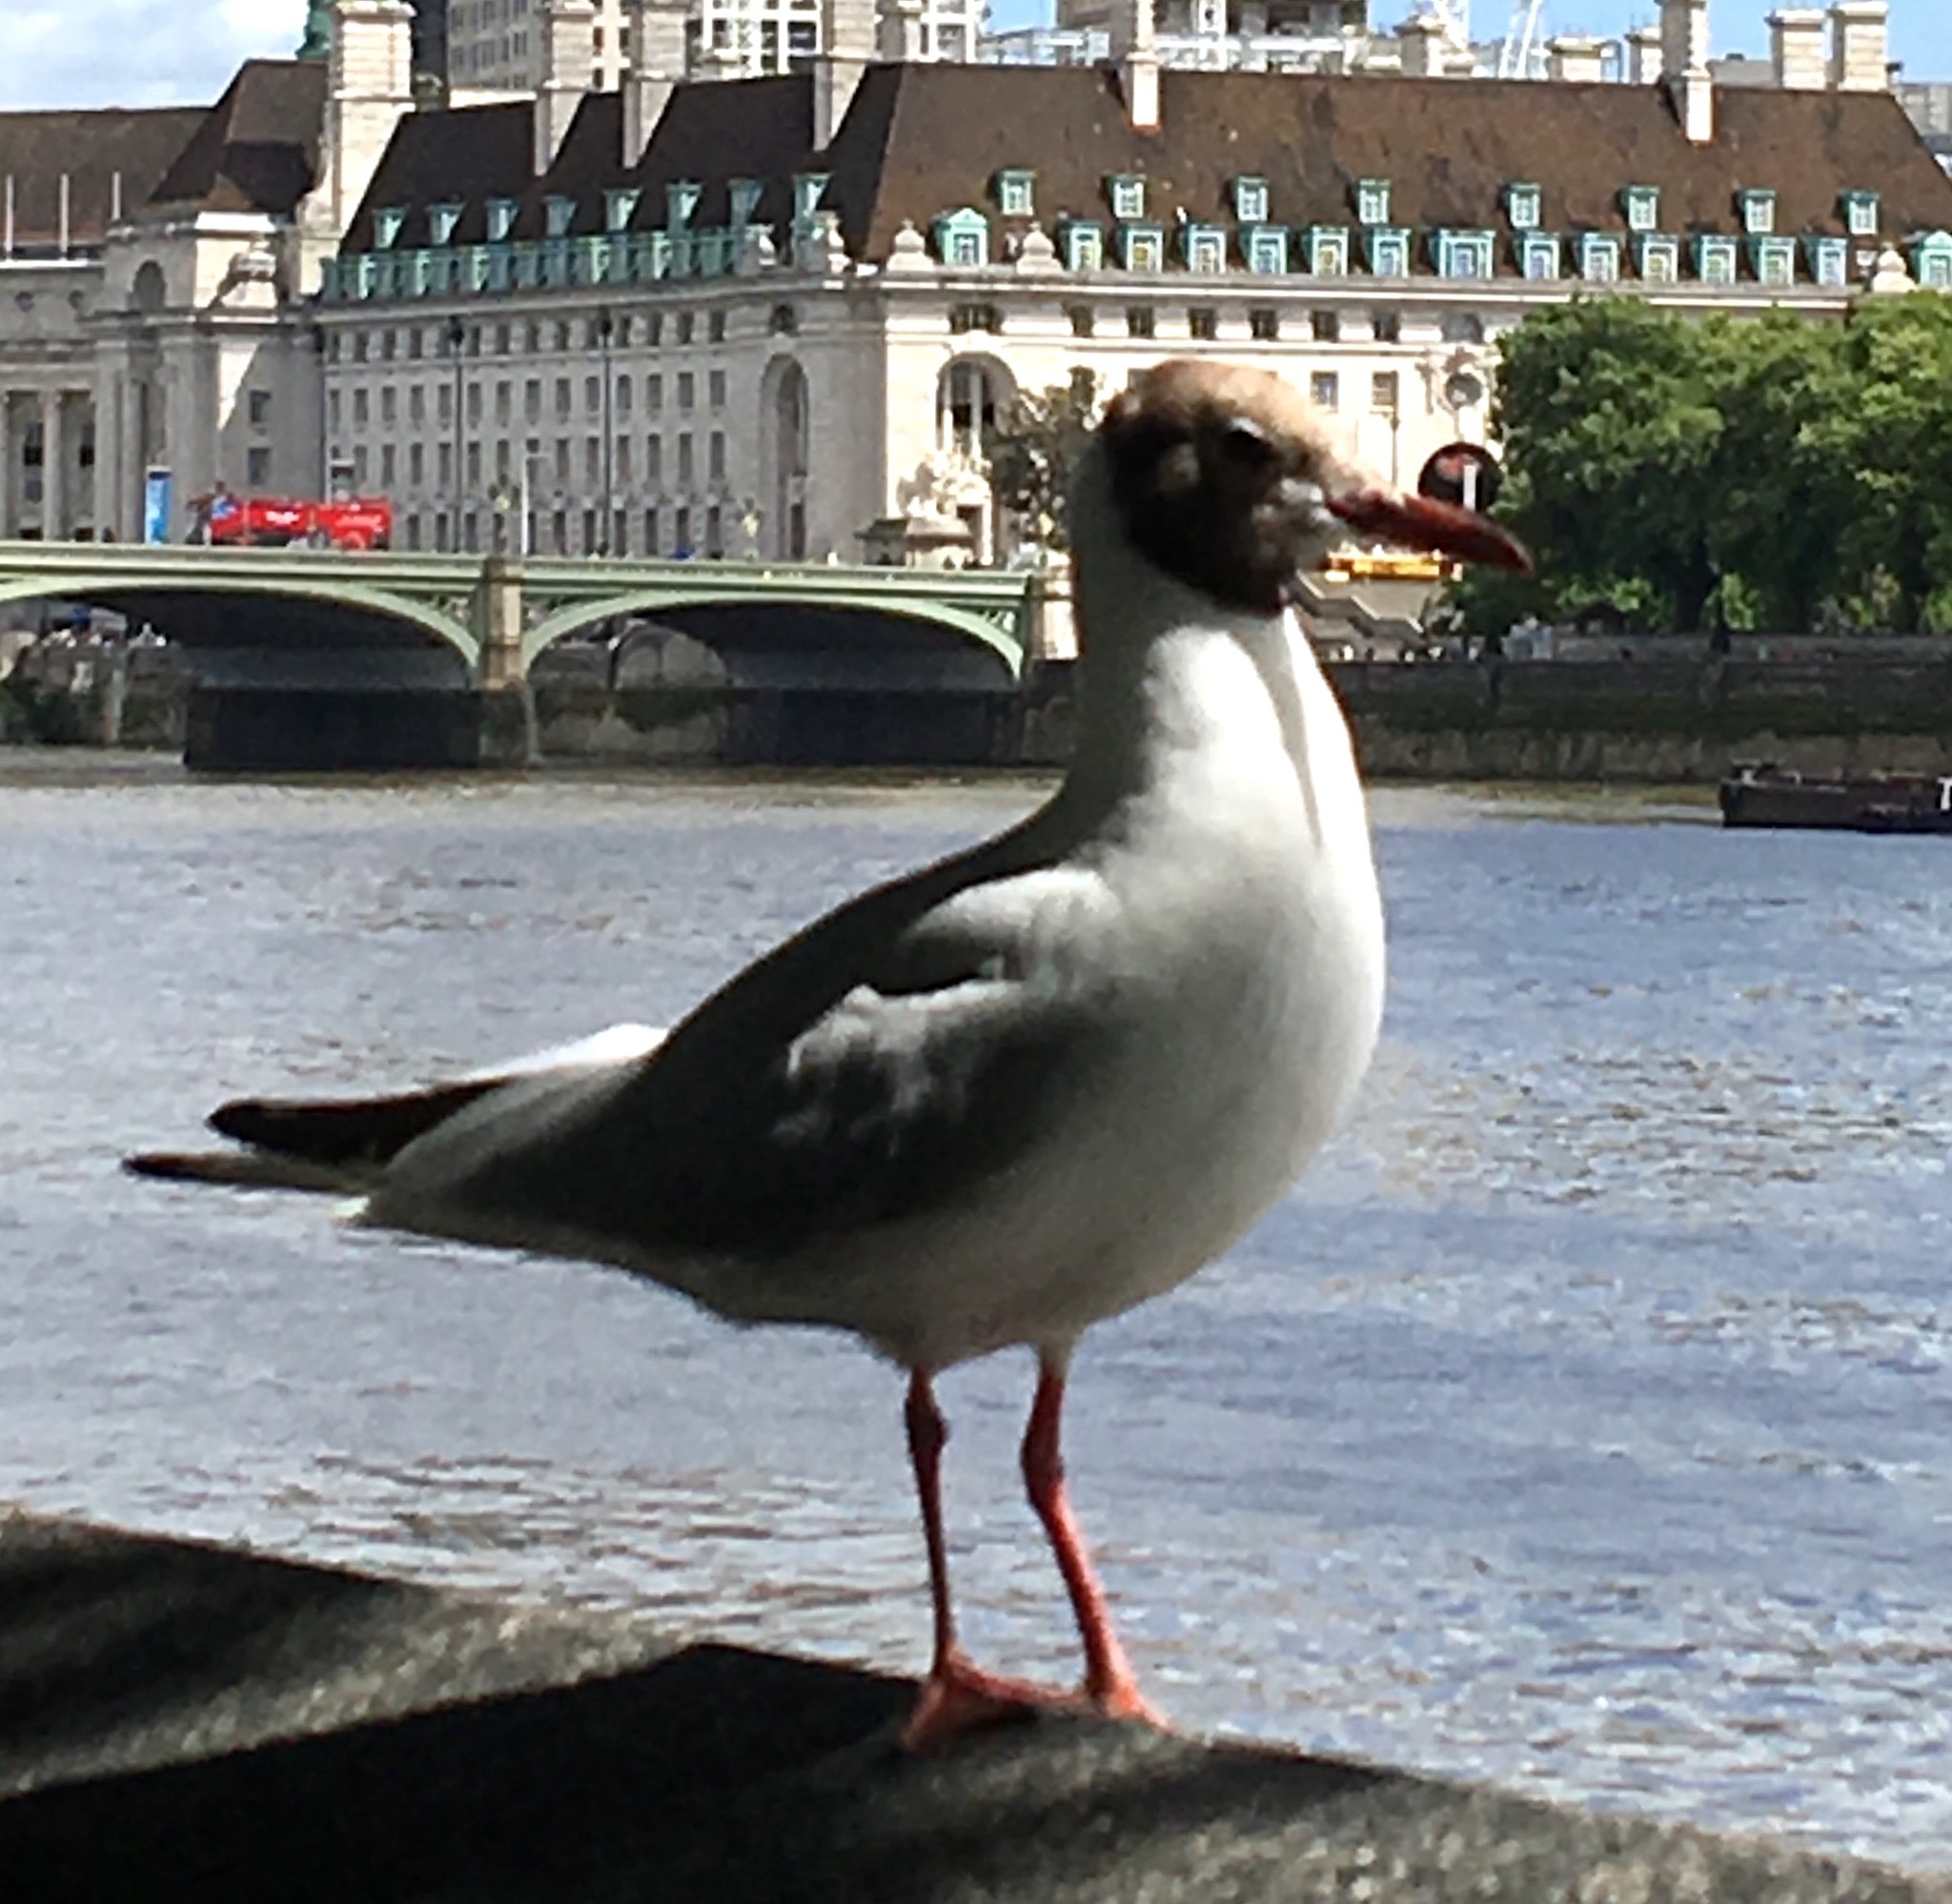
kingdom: Animalia
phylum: Chordata
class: Aves
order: Charadriiformes
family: Laridae
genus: Chroicocephalus
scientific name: Chroicocephalus ridibundus
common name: Black-headed gull
